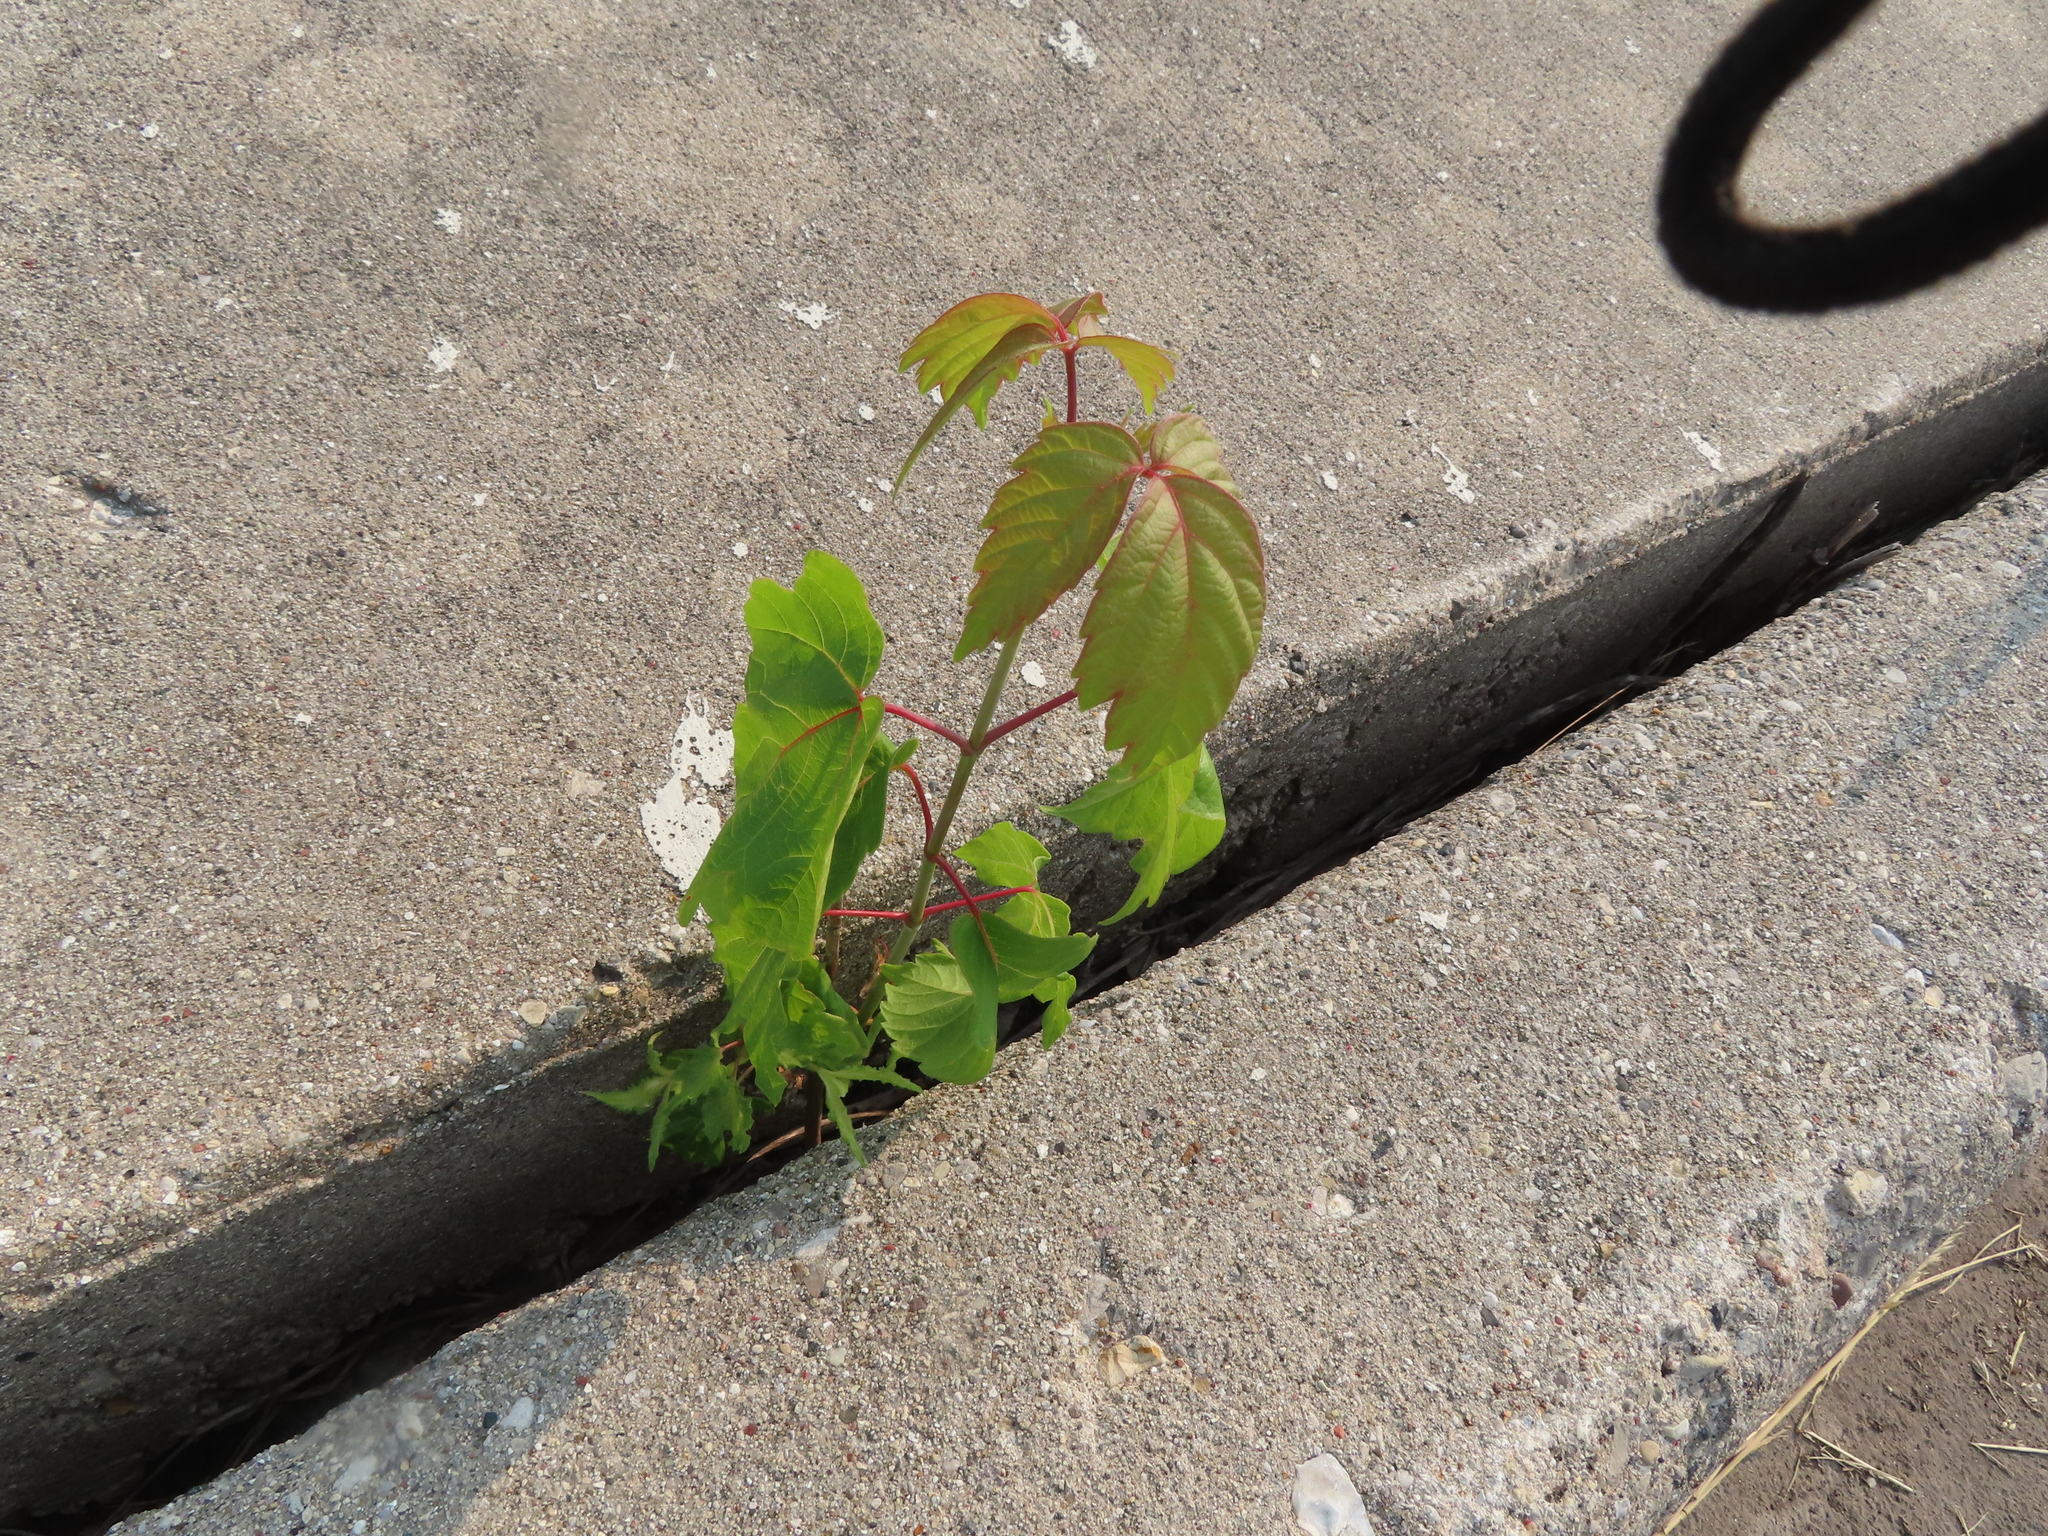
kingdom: Plantae
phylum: Tracheophyta
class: Magnoliopsida
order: Sapindales
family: Sapindaceae
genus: Acer
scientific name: Acer negundo
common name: Ashleaf maple
